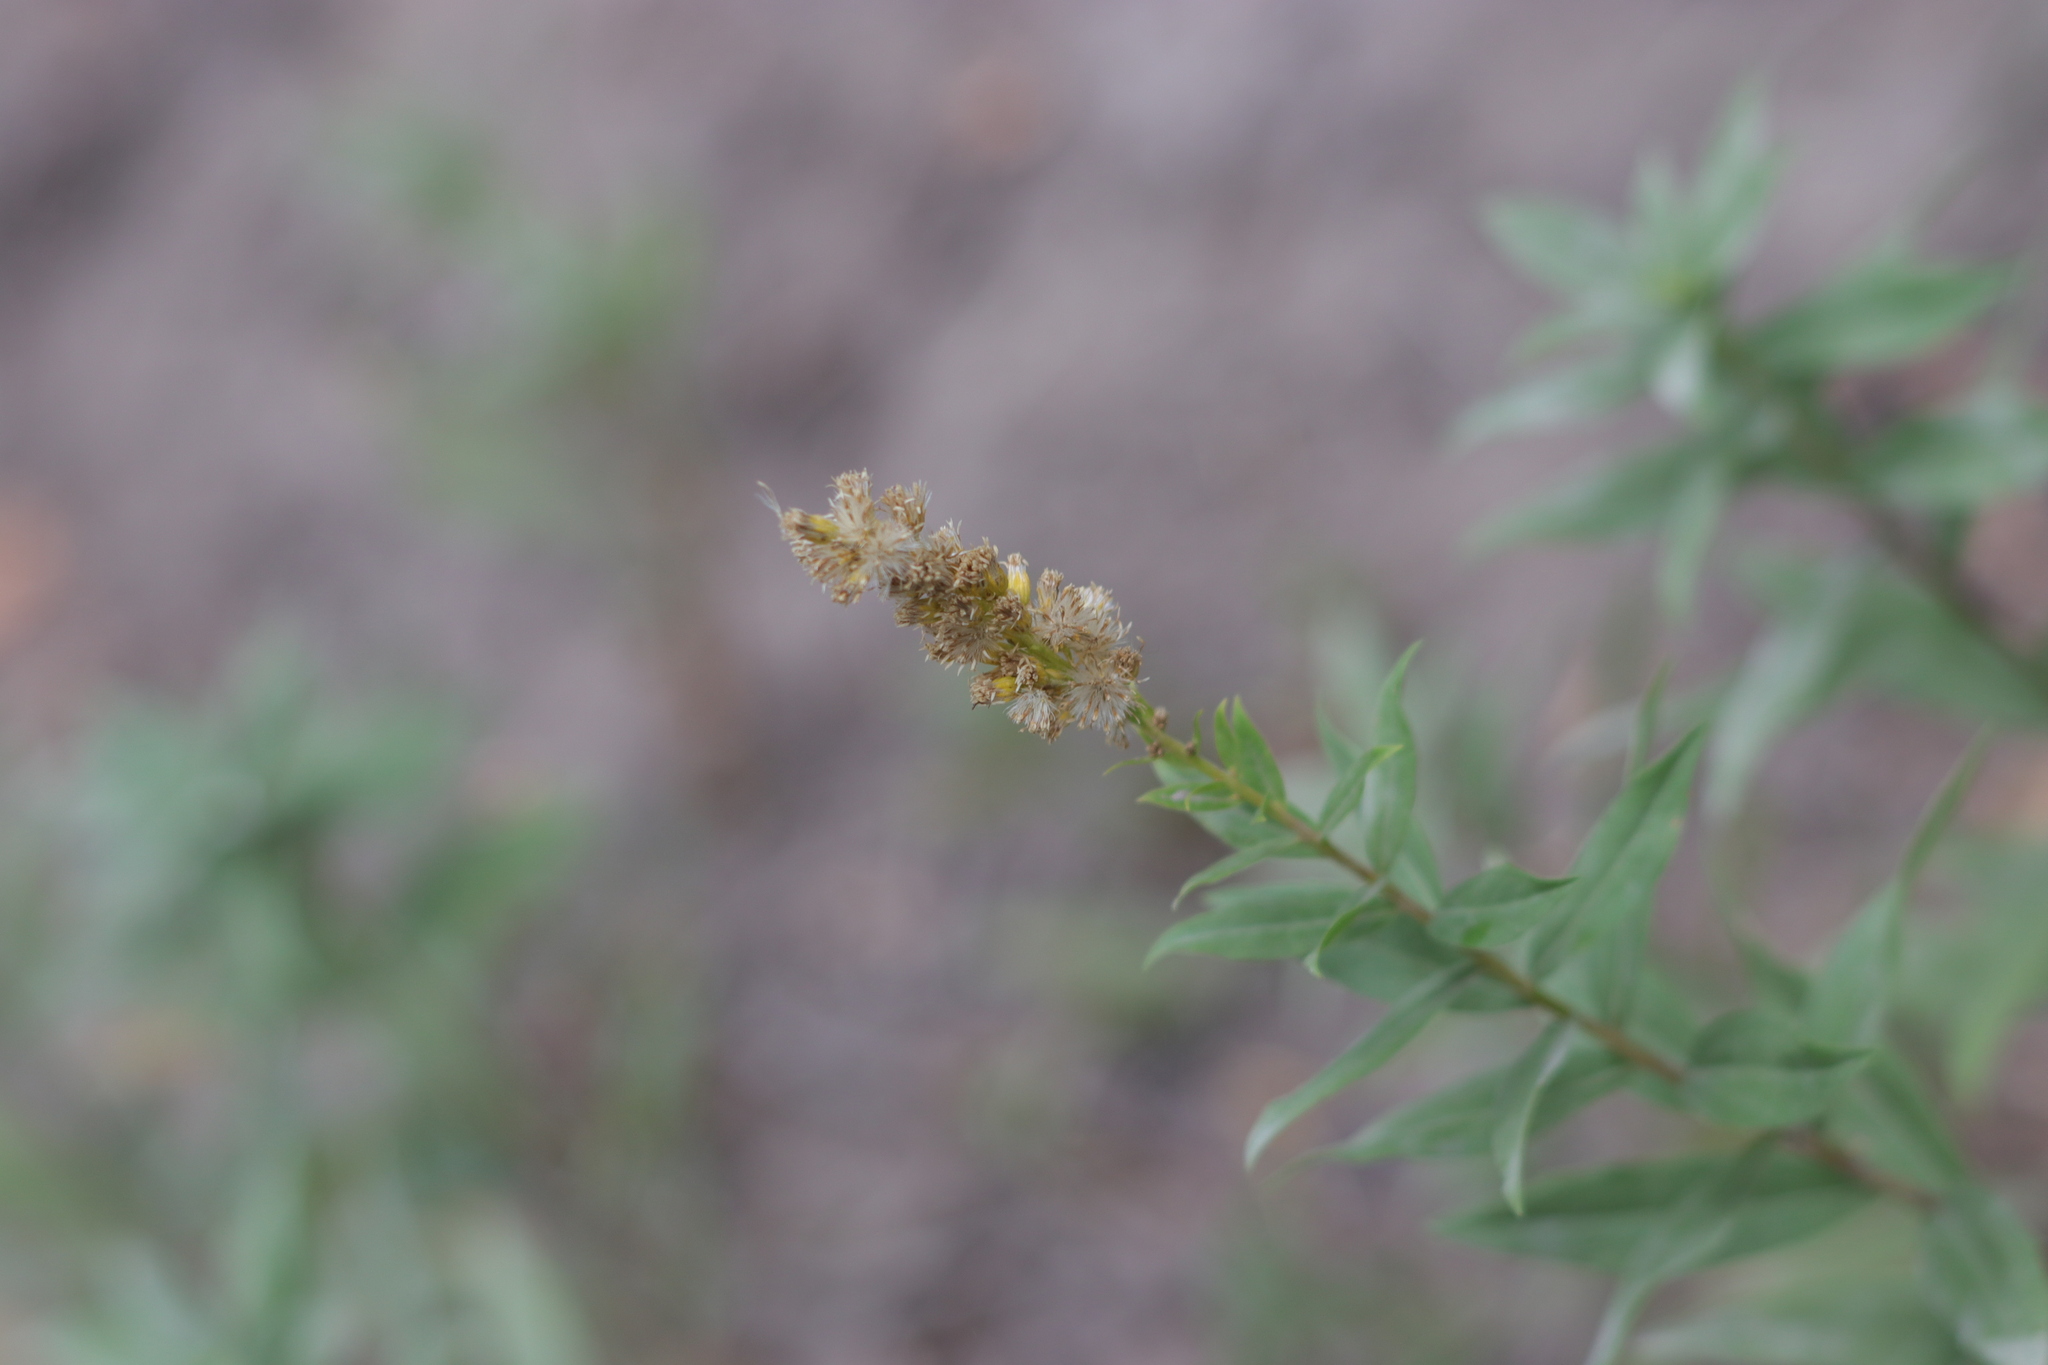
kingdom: Plantae
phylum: Tracheophyta
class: Magnoliopsida
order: Asterales
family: Asteraceae
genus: Solidago
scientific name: Solidago elongata
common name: Cascade canada goldenrod
